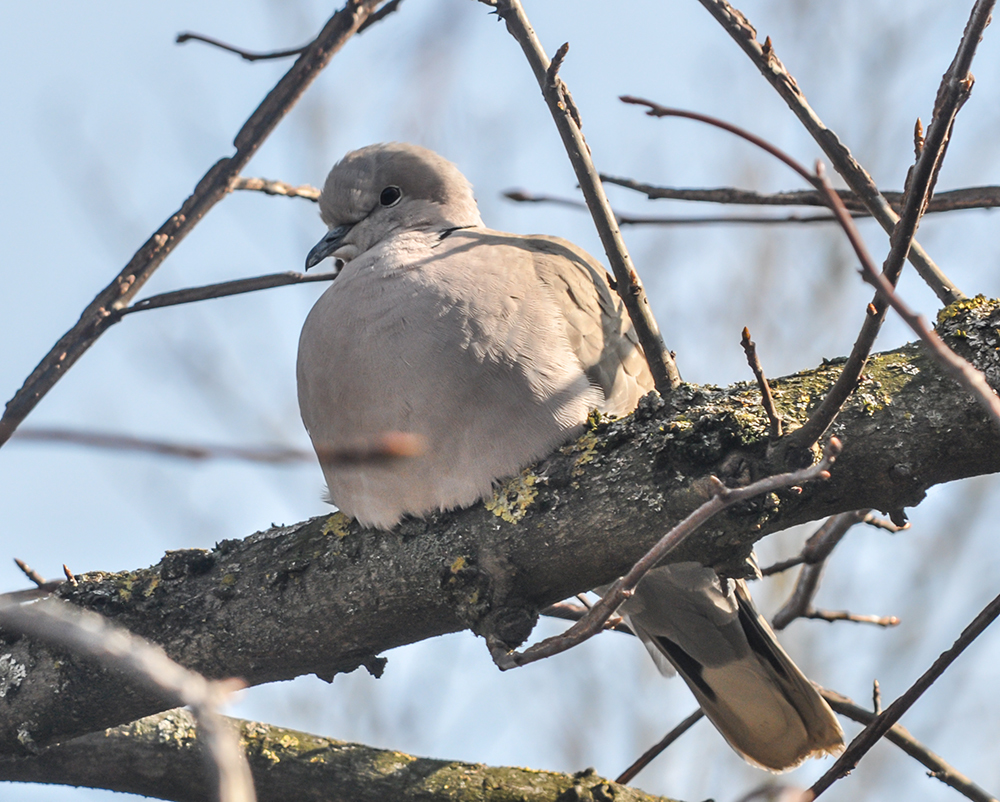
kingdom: Animalia
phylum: Chordata
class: Aves
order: Columbiformes
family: Columbidae
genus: Streptopelia
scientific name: Streptopelia decaocto
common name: Eurasian collared dove
